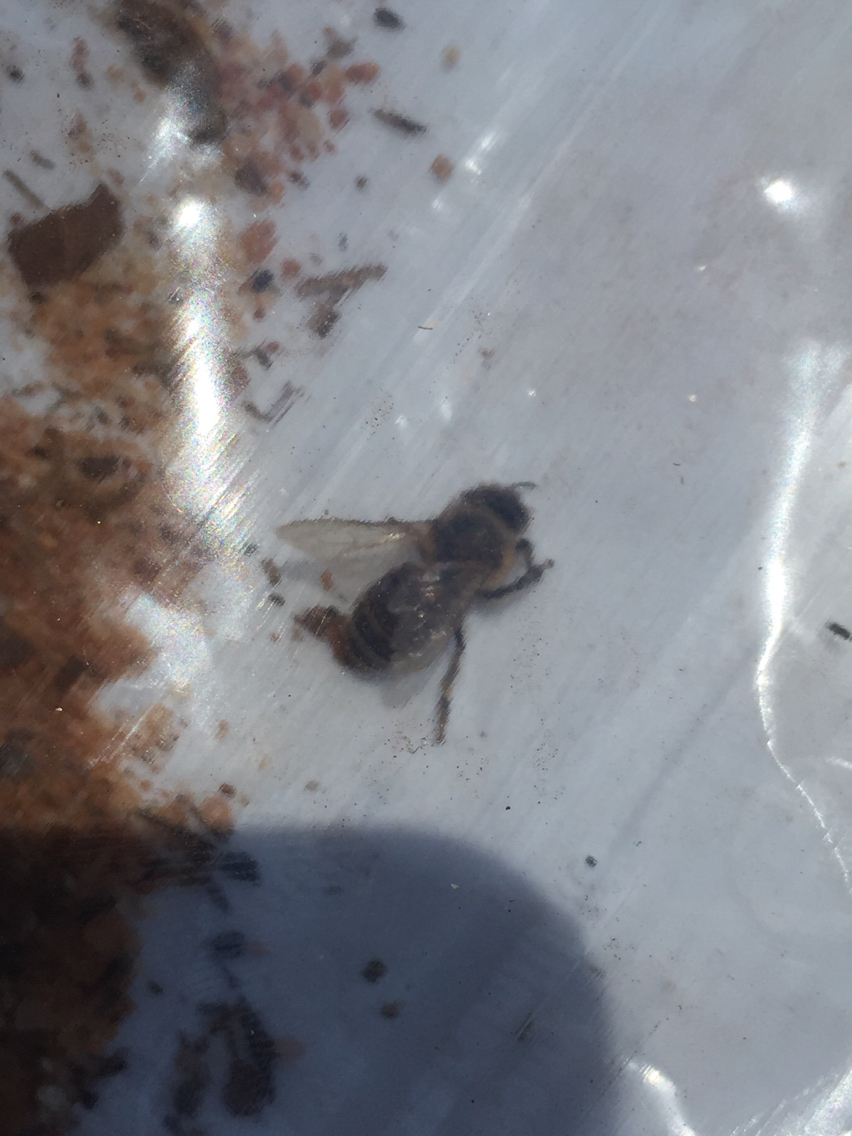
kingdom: Animalia
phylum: Arthropoda
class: Insecta
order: Hymenoptera
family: Apidae
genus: Apis
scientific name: Apis mellifera
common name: Honey bee
